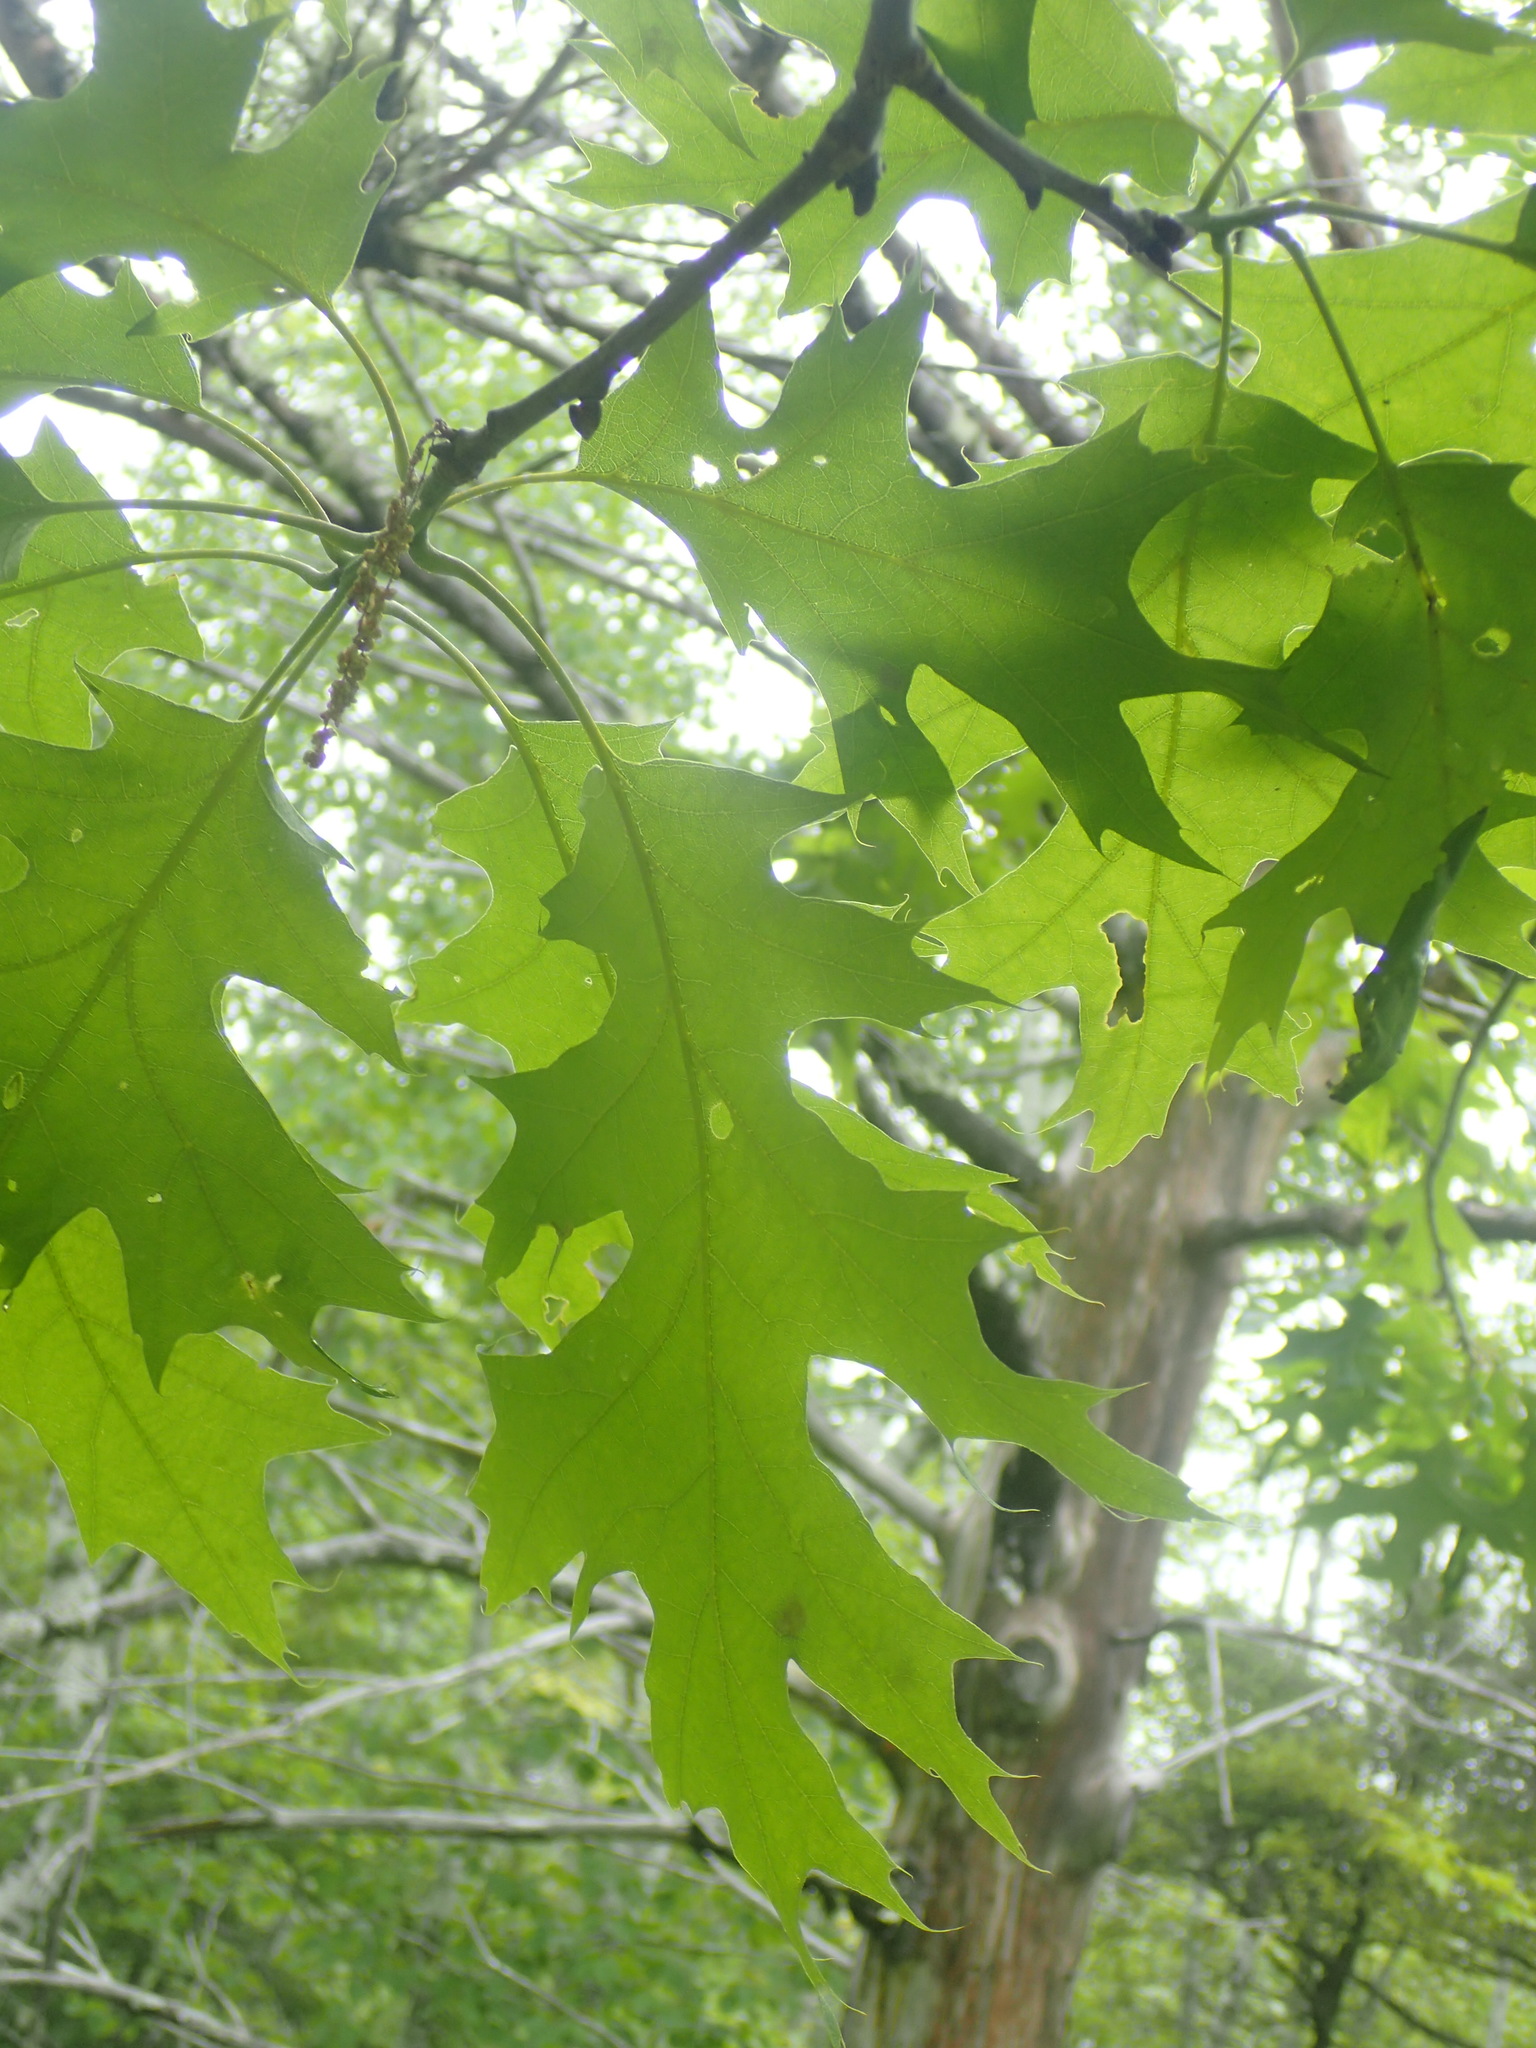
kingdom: Plantae
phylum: Tracheophyta
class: Magnoliopsida
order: Fagales
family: Fagaceae
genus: Quercus
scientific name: Quercus rubra
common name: Red oak
